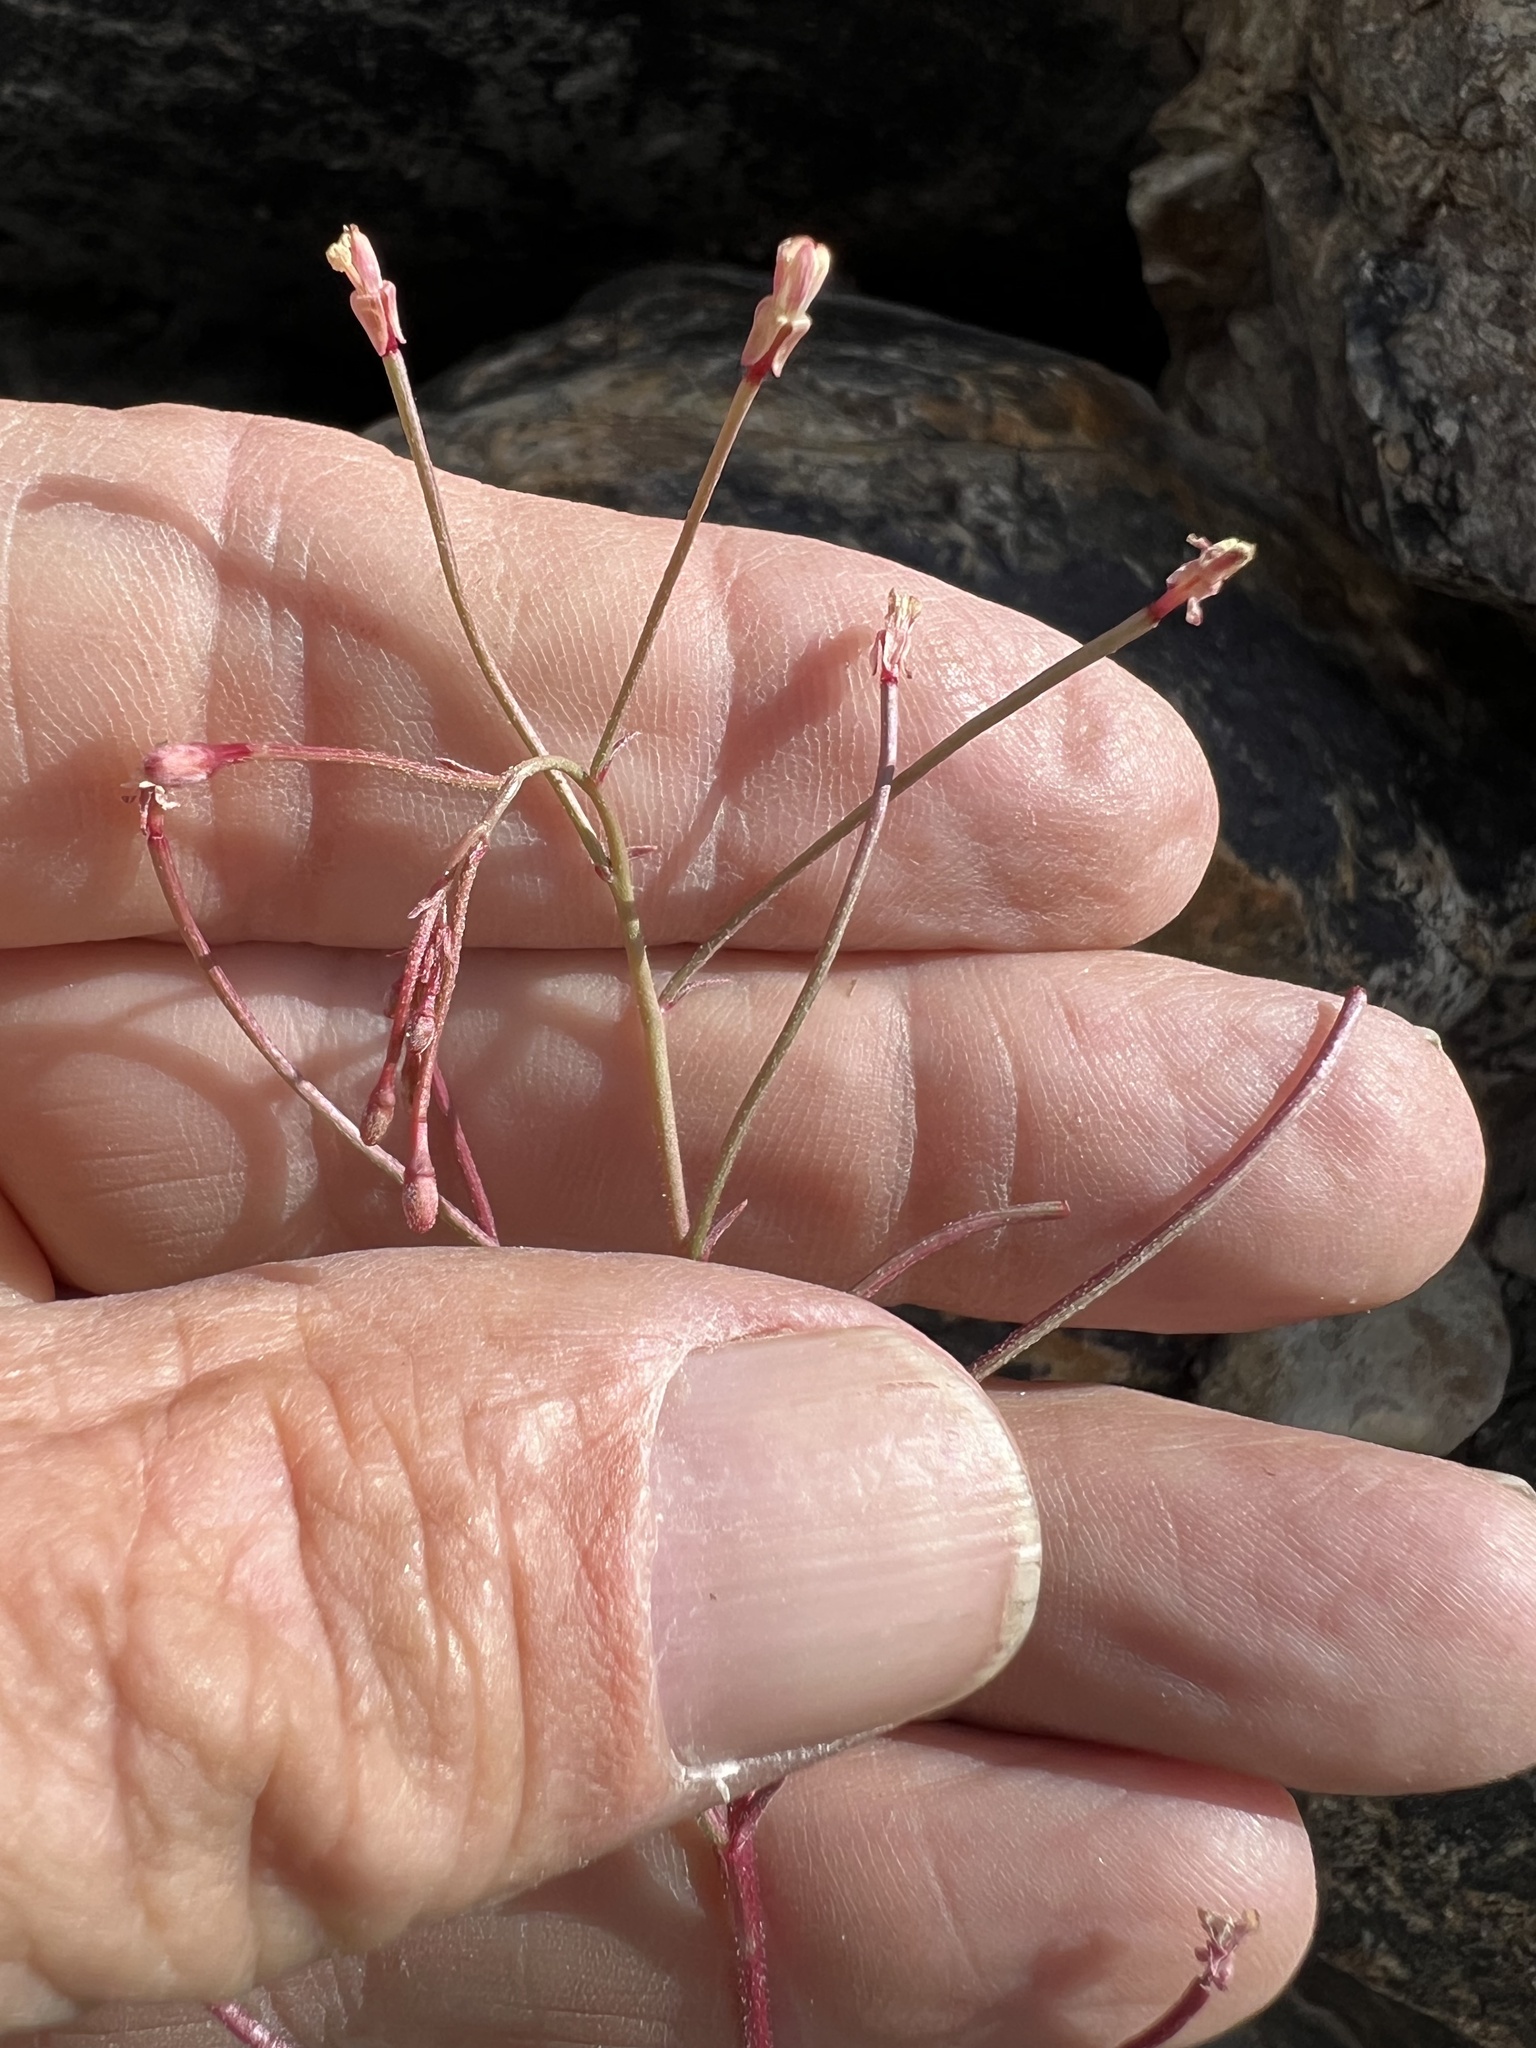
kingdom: Plantae
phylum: Tracheophyta
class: Magnoliopsida
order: Myrtales
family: Onagraceae
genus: Eremothera
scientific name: Eremothera chamaenerioides
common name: Longcapsule suncup
